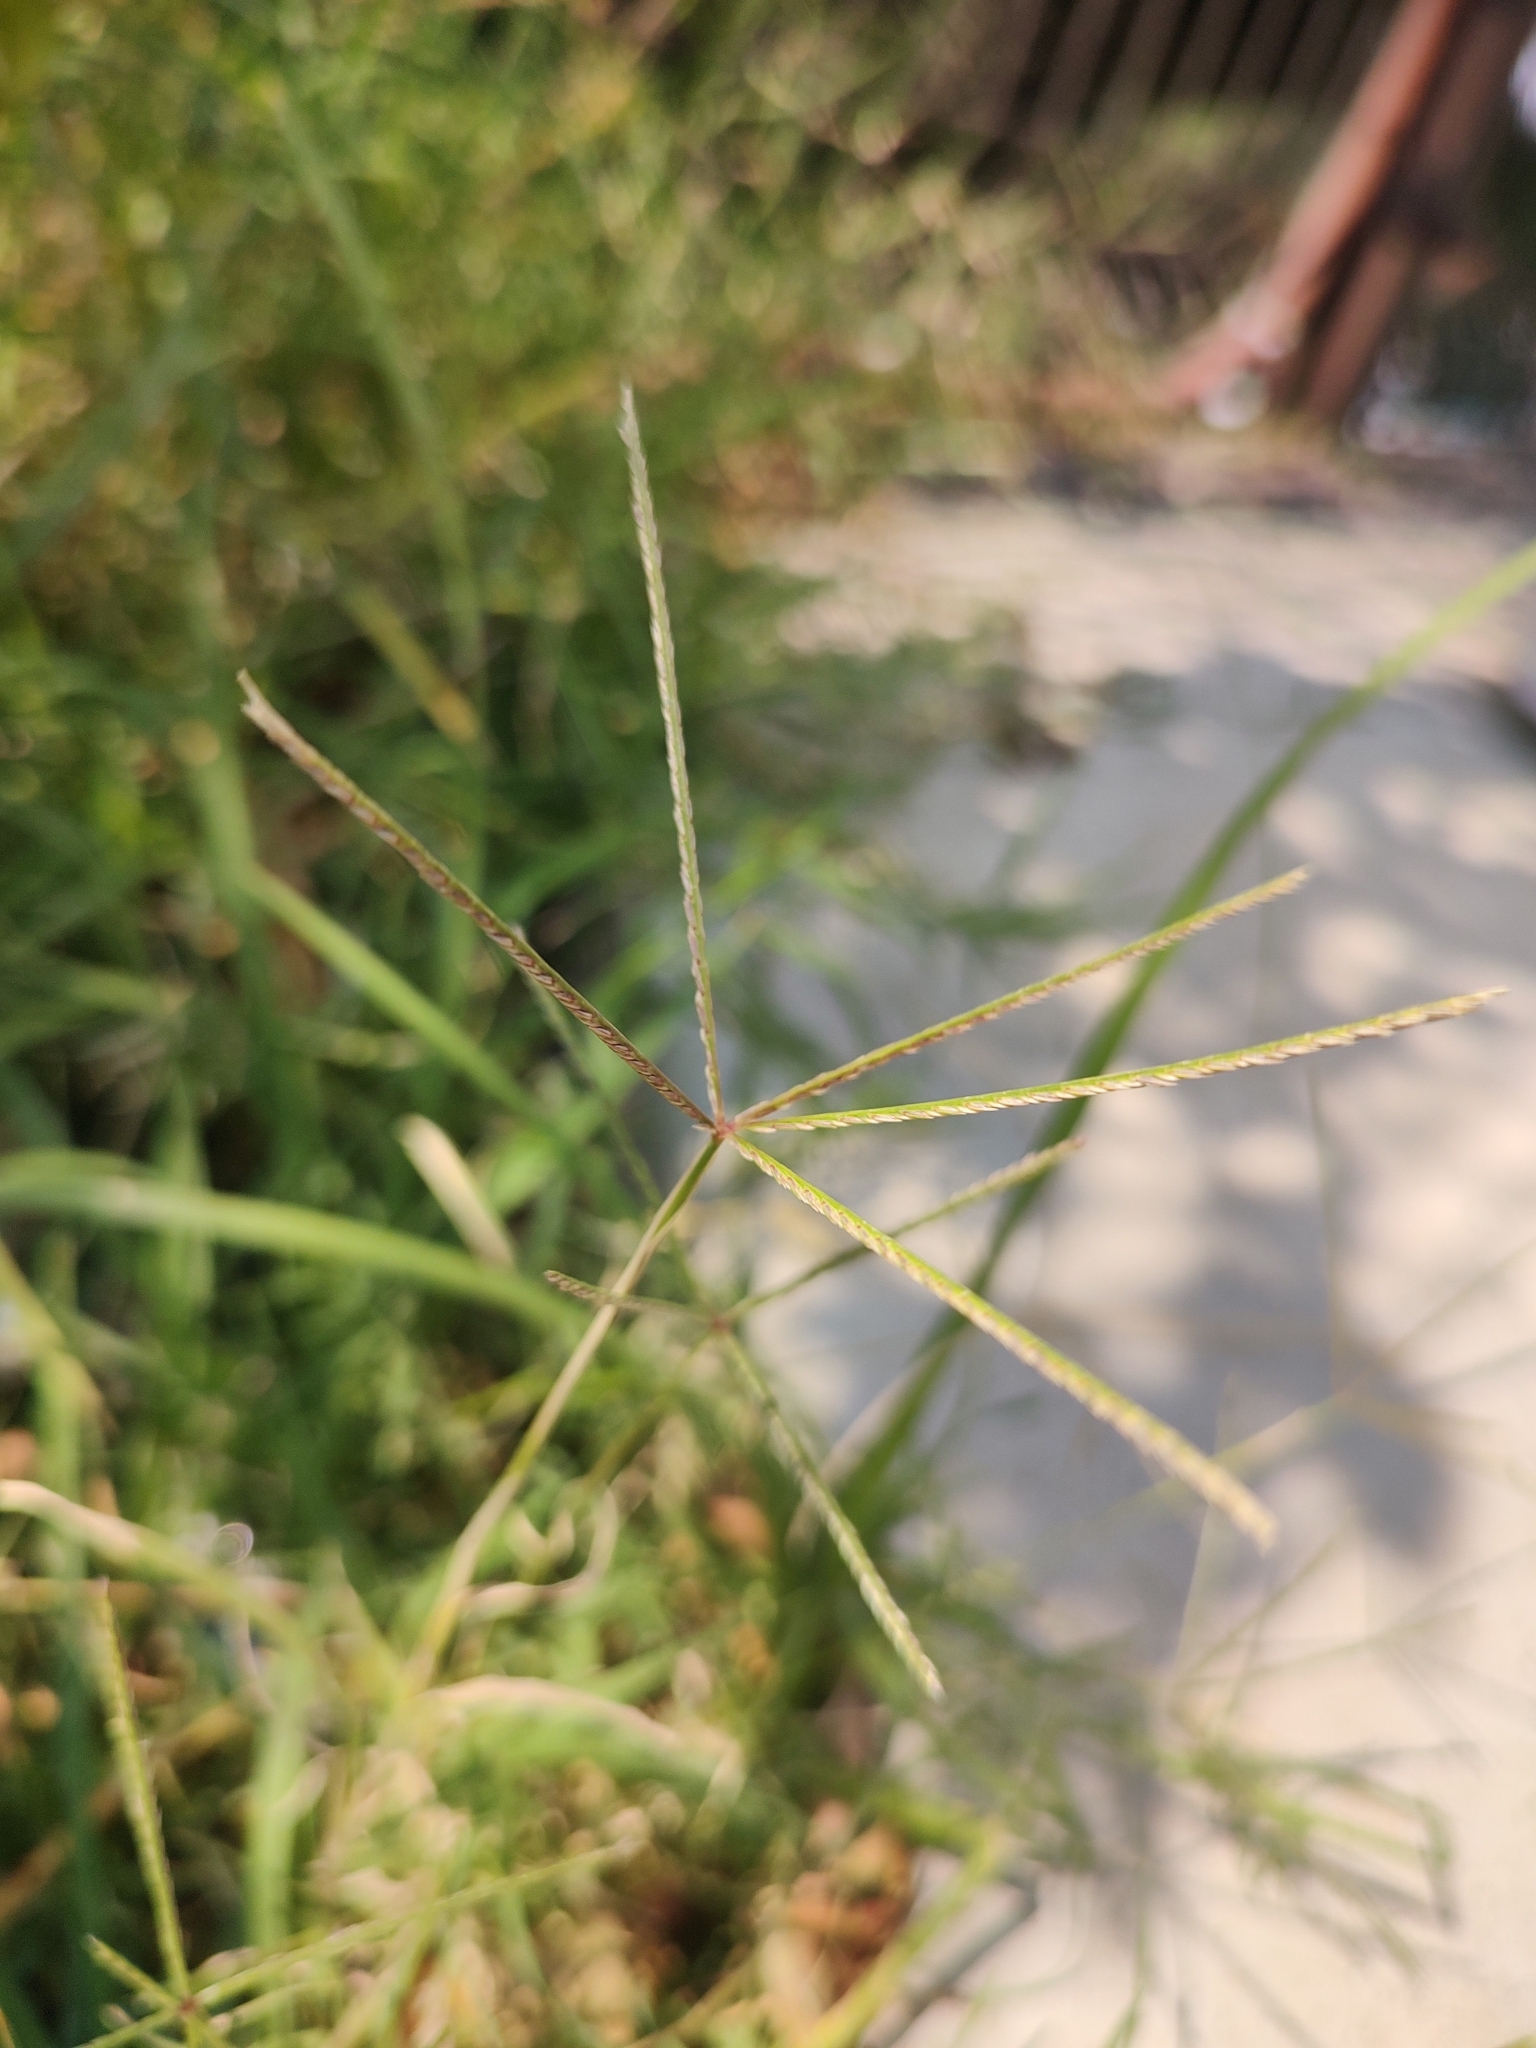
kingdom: Plantae
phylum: Tracheophyta
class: Liliopsida
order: Poales
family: Poaceae
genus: Cynodon
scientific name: Cynodon dactylon
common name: Bermuda grass
